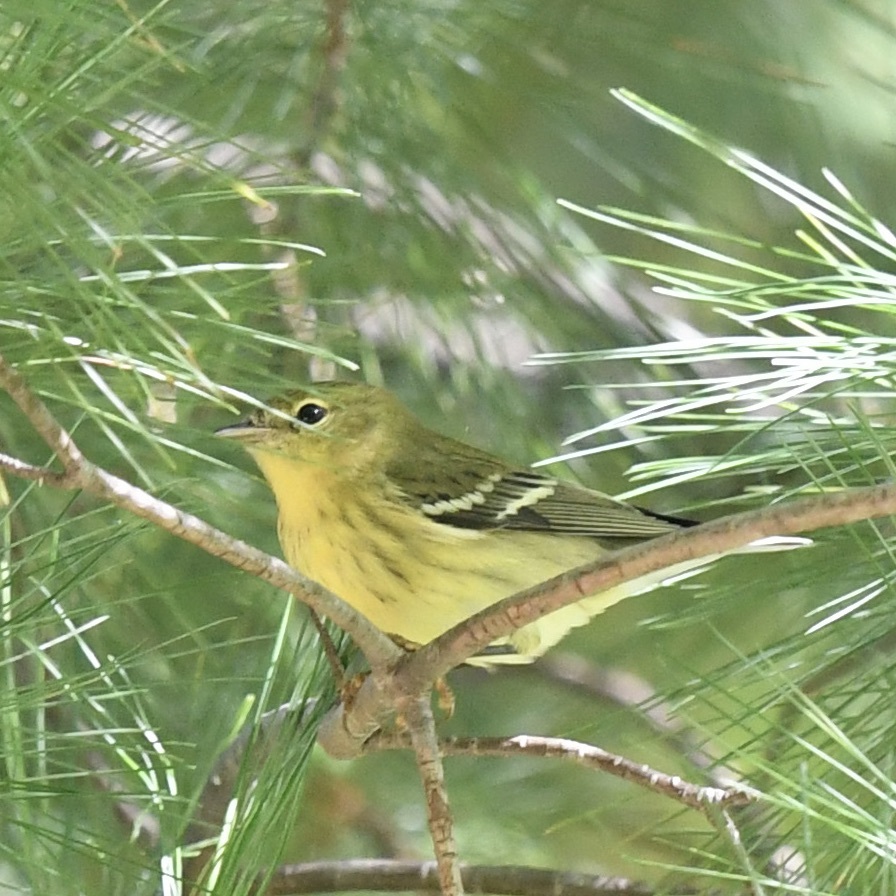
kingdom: Animalia
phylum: Chordata
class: Aves
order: Passeriformes
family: Parulidae
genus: Setophaga
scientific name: Setophaga striata
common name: Blackpoll warbler
